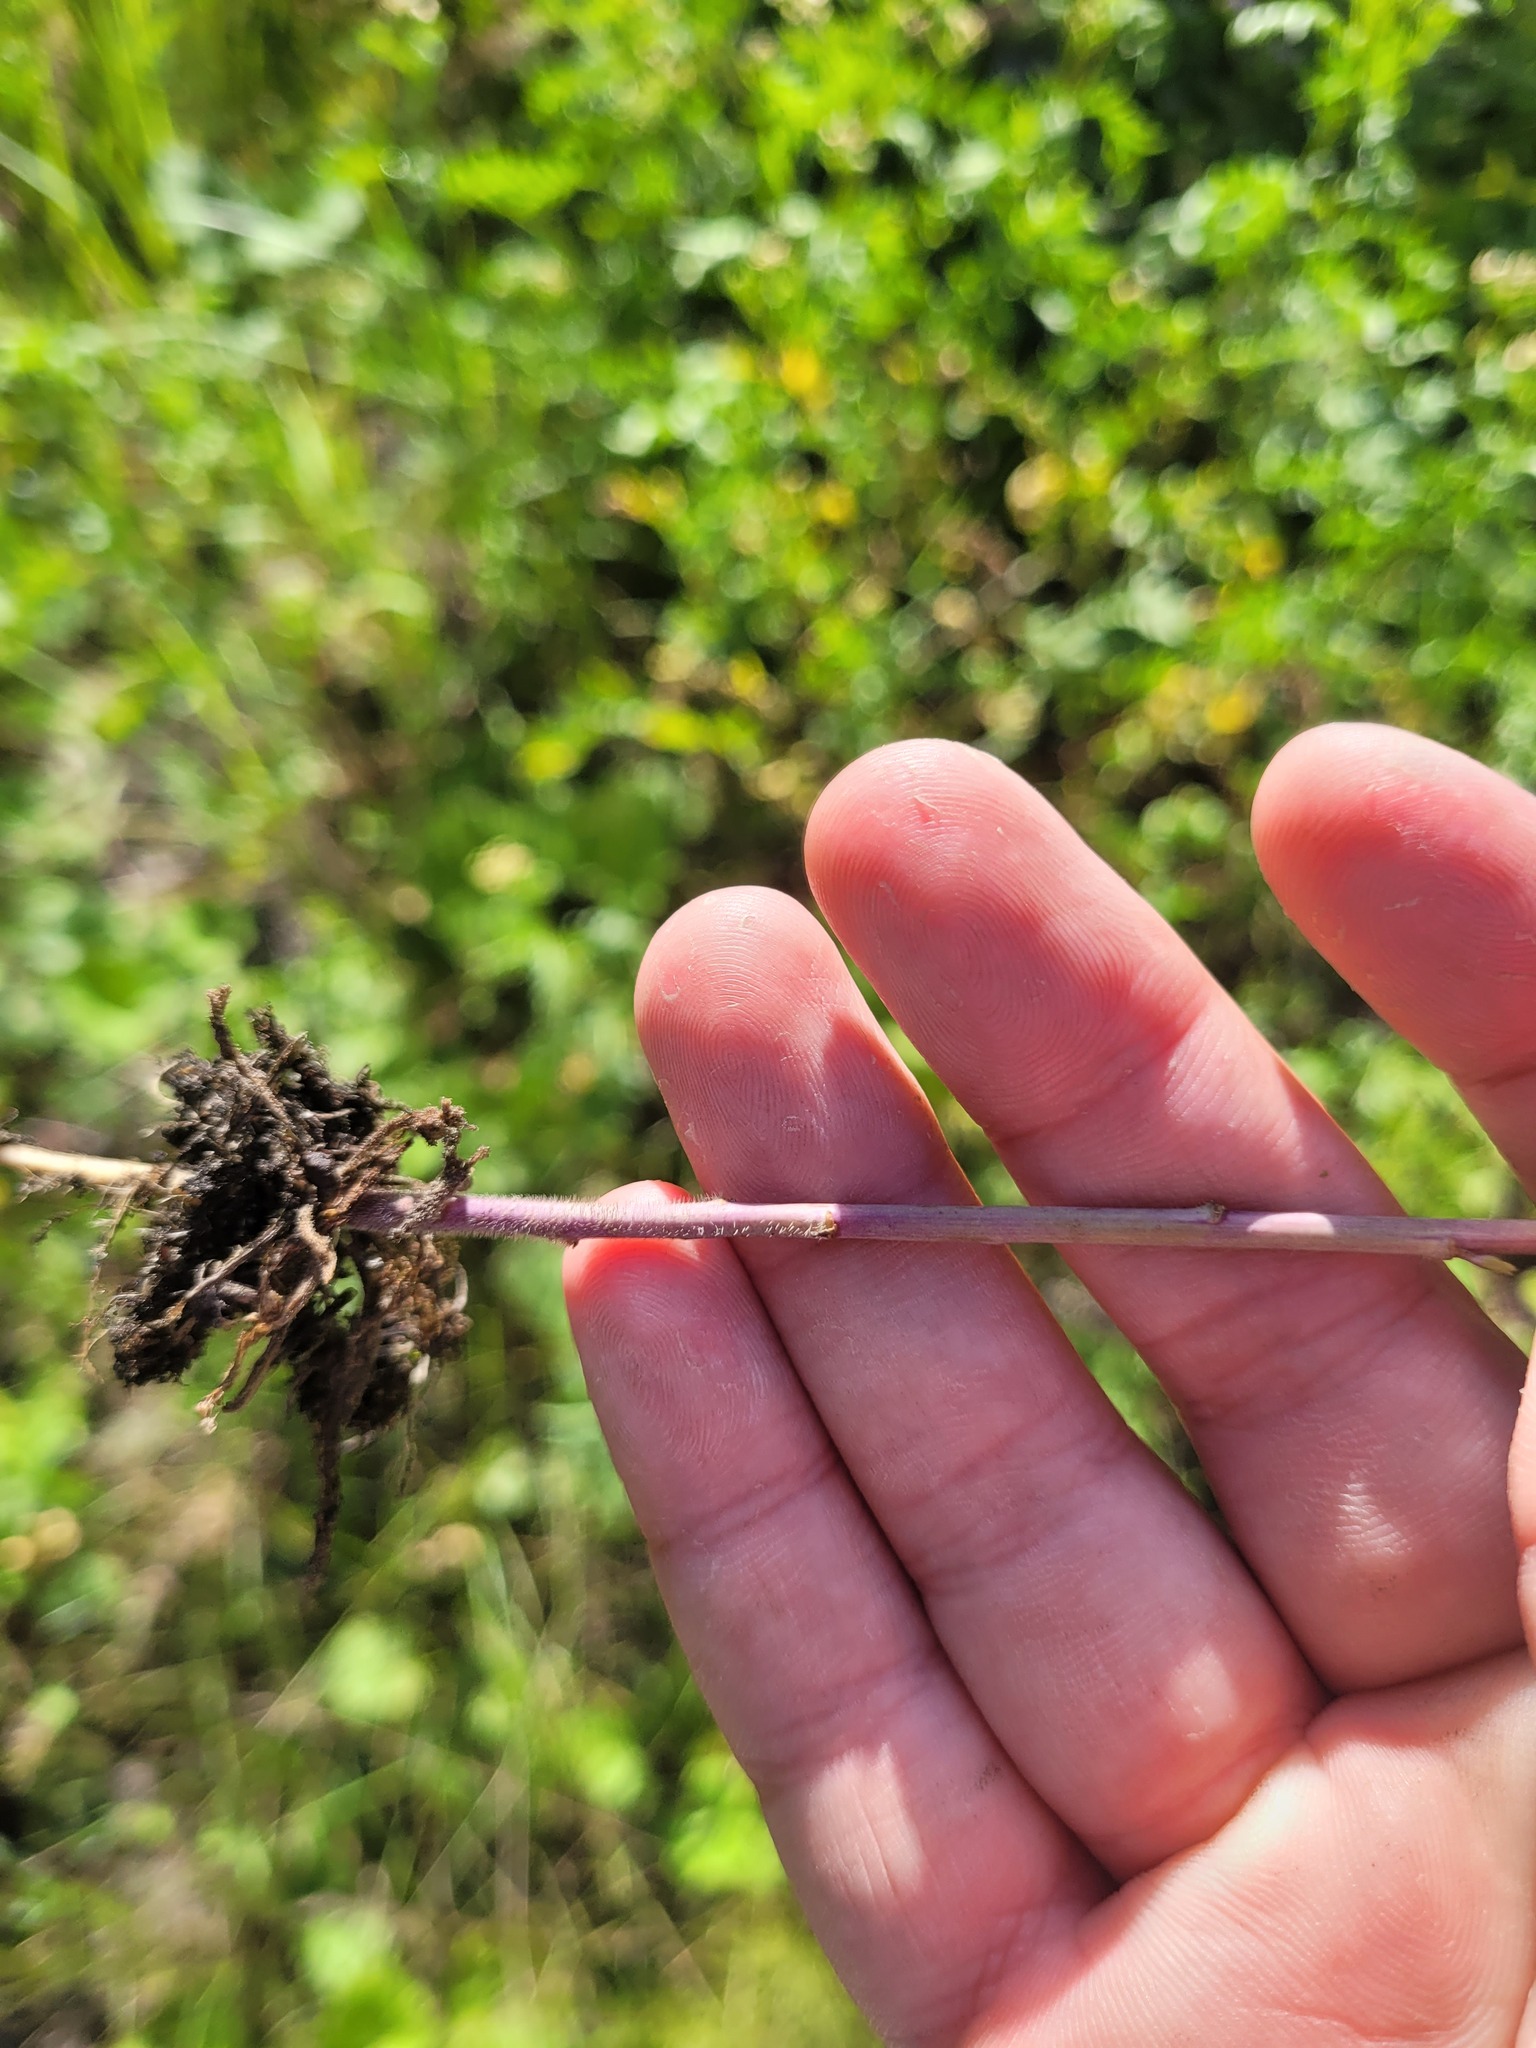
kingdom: Plantae
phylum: Tracheophyta
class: Magnoliopsida
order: Brassicales
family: Brassicaceae
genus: Turritis
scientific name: Turritis glabra
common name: Tower rockcress
